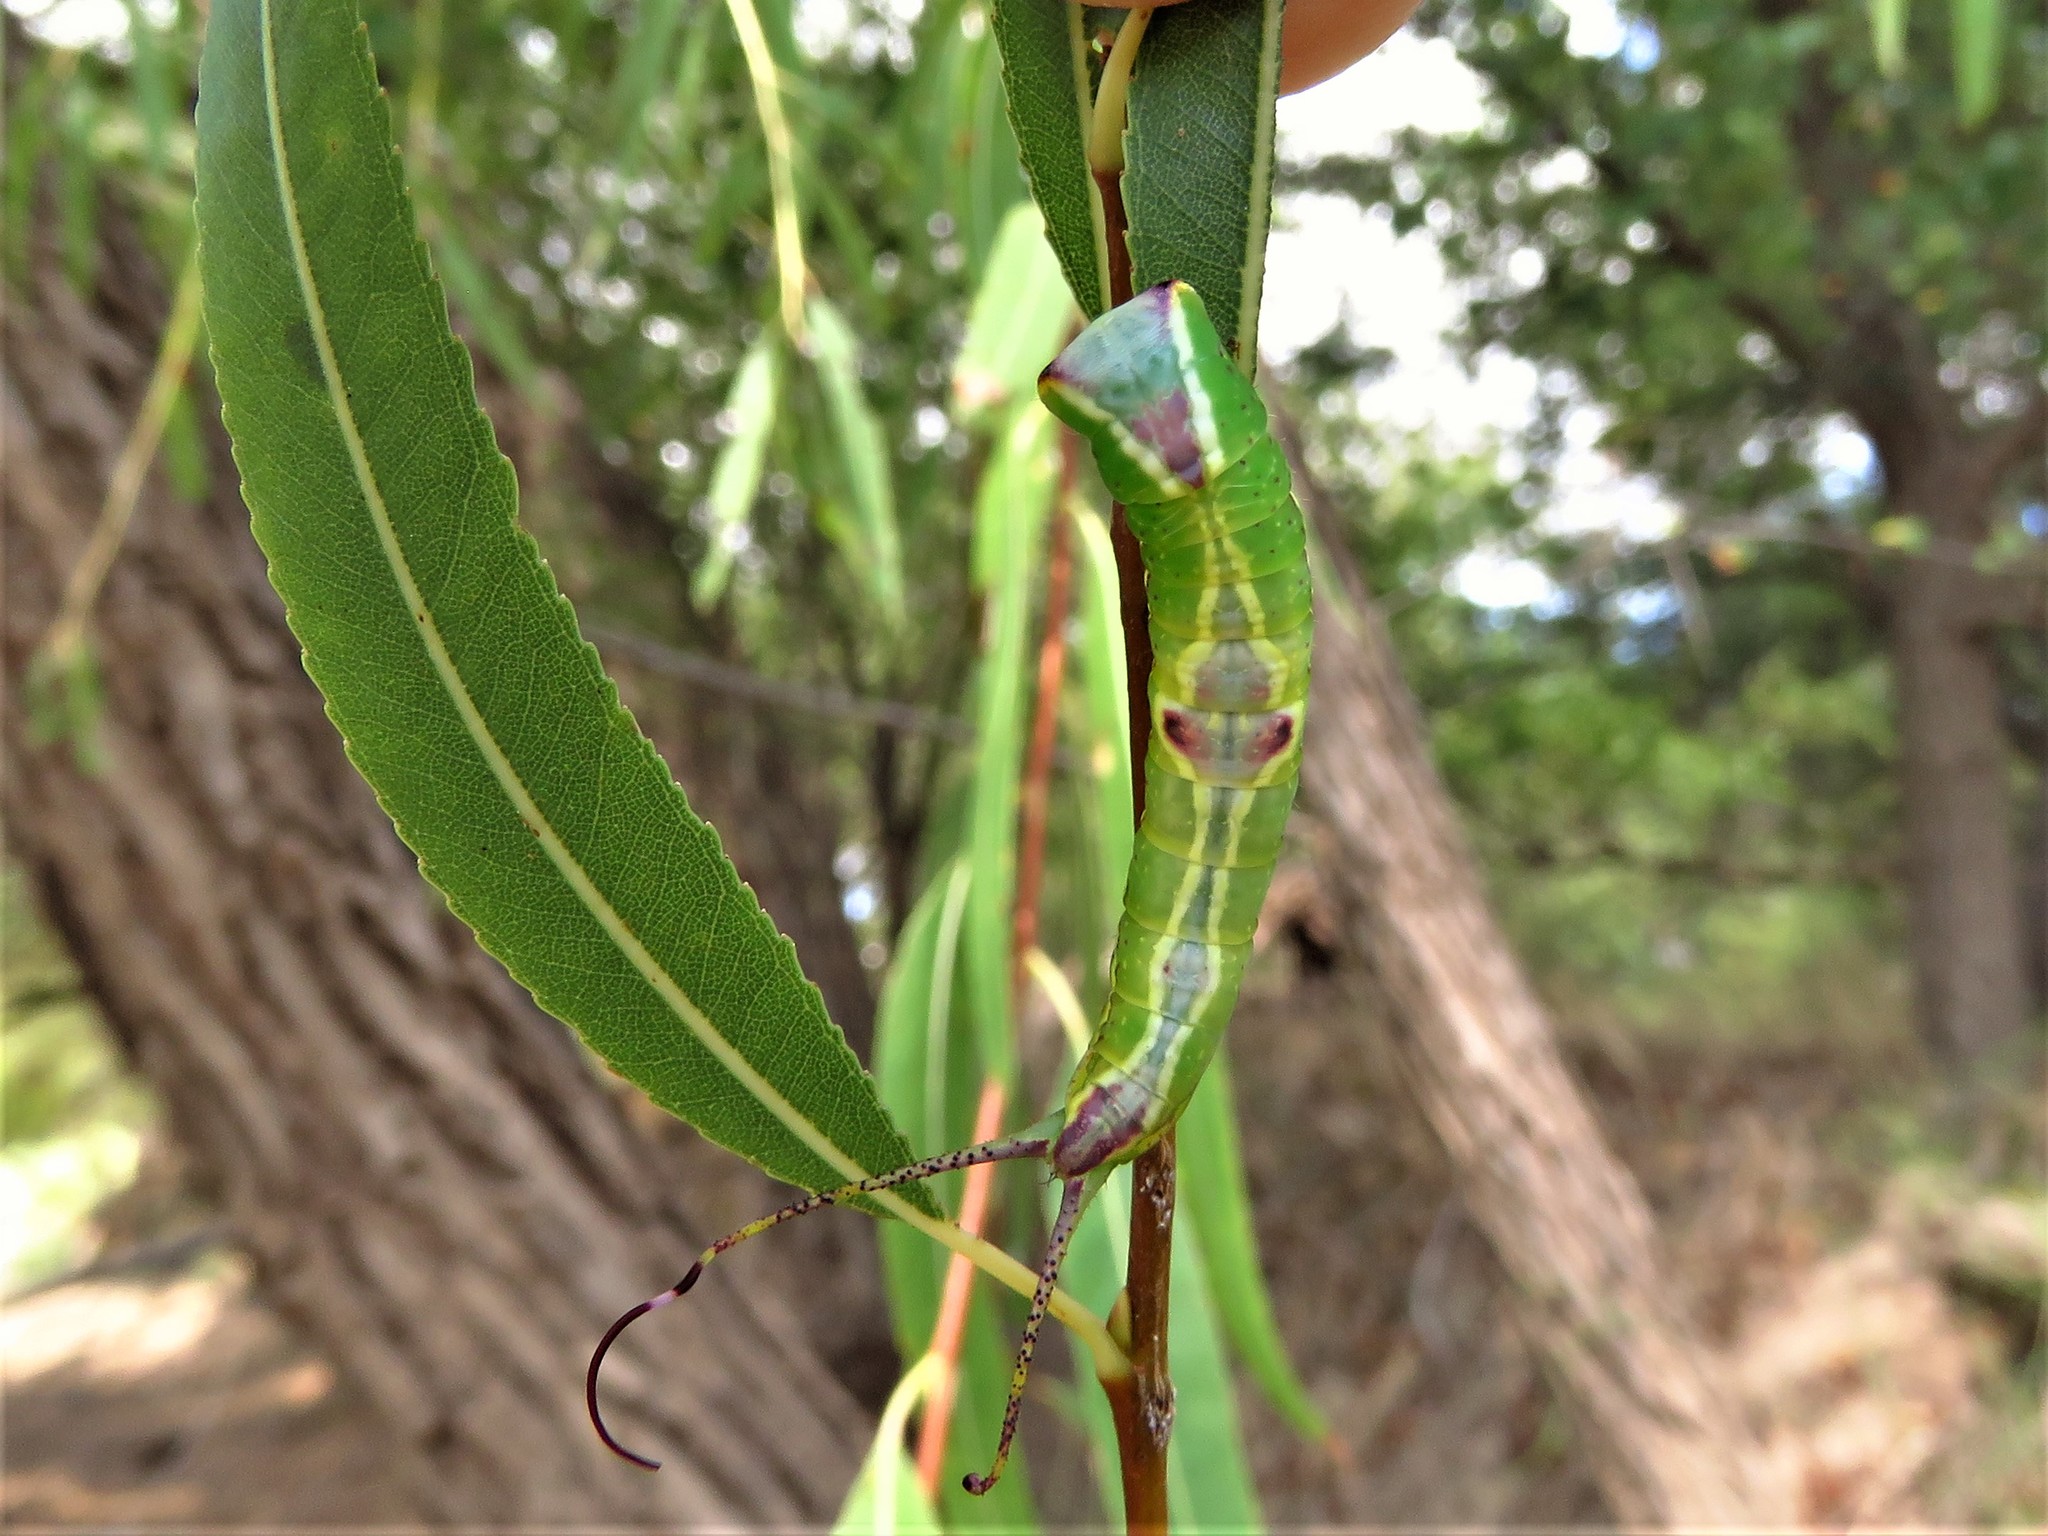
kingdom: Animalia
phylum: Arthropoda
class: Insecta
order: Lepidoptera
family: Notodontidae
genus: Furcula
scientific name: Furcula cinerea
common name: Gray furcula
